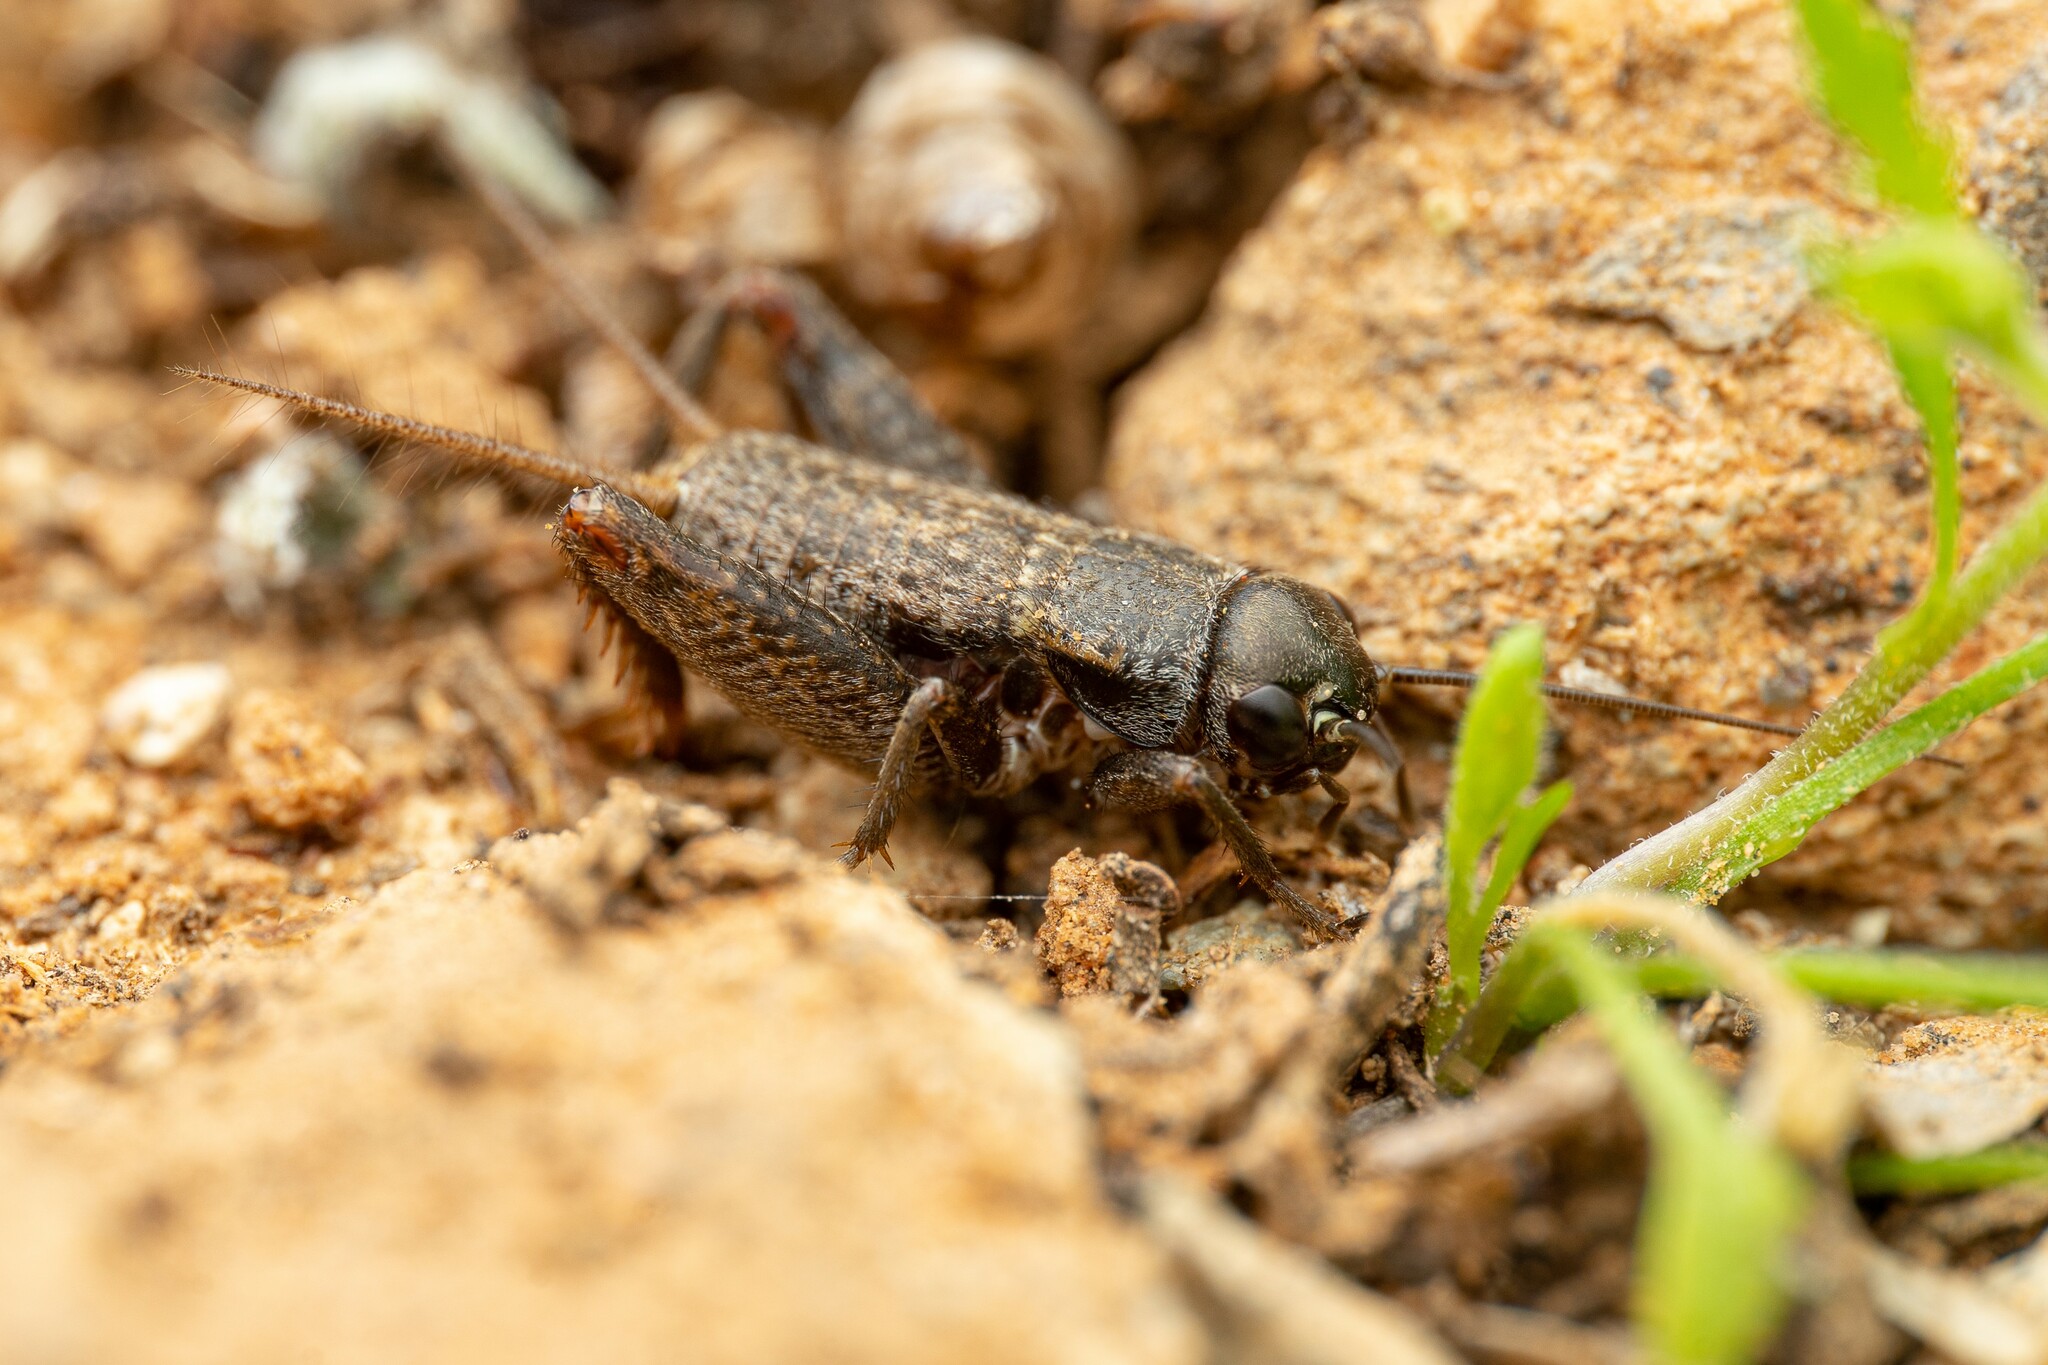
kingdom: Animalia
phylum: Arthropoda
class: Insecta
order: Orthoptera
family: Gryllidae
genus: Gryllus
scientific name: Gryllus
